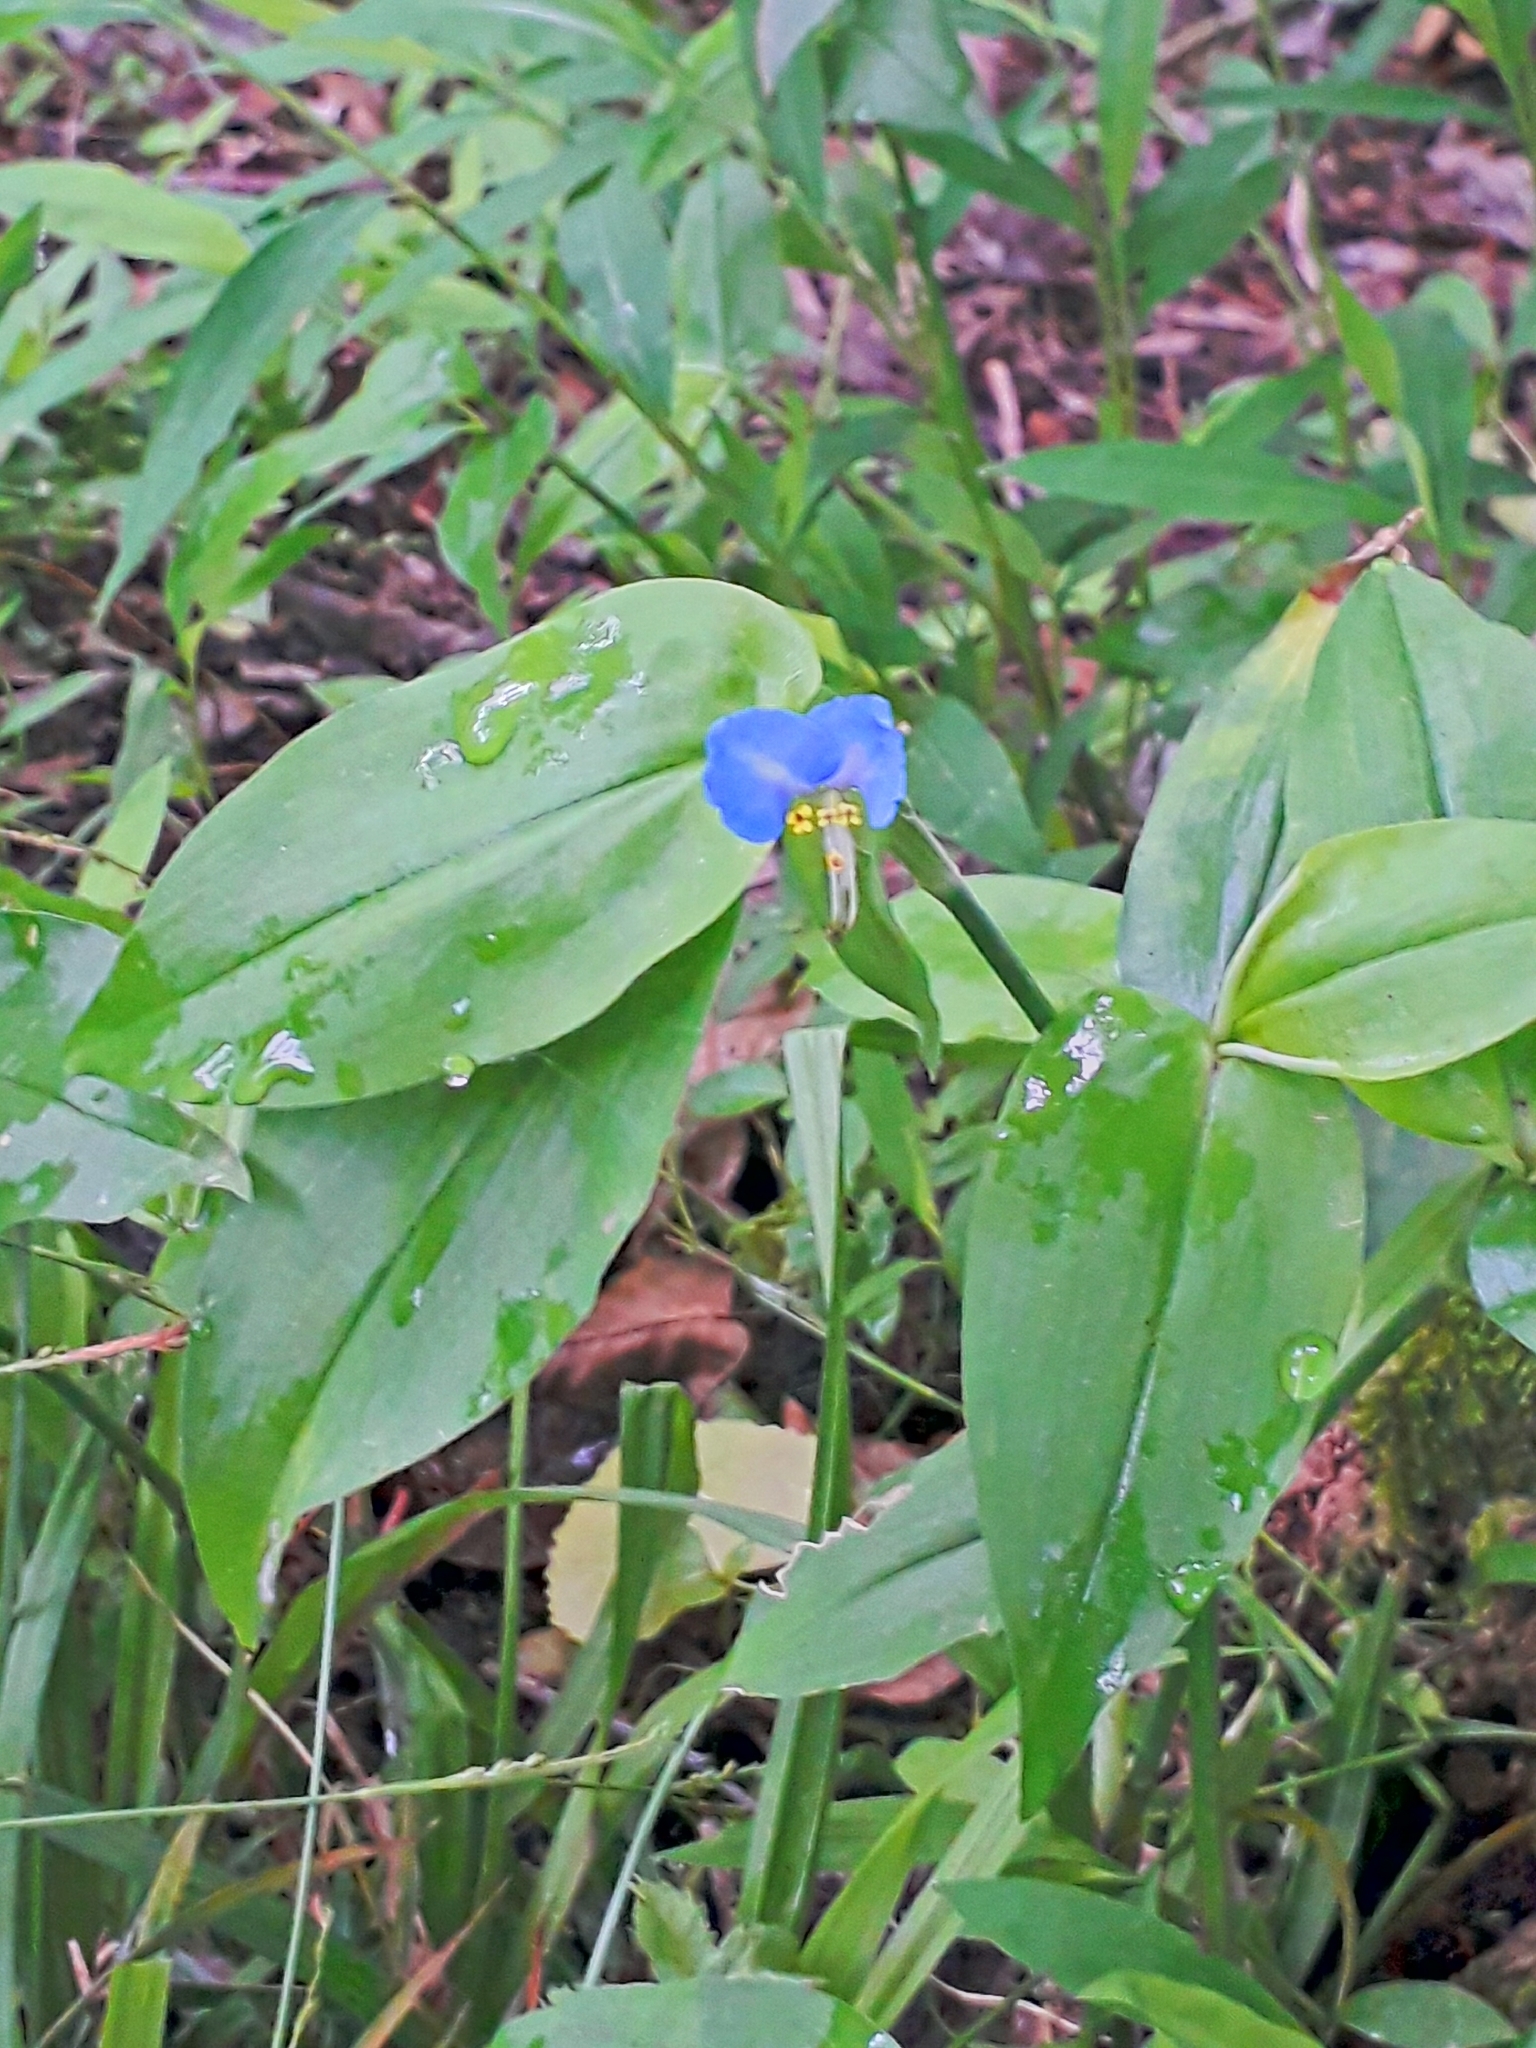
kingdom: Plantae
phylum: Tracheophyta
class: Liliopsida
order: Commelinales
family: Commelinaceae
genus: Commelina
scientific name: Commelina communis
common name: Asiatic dayflower
